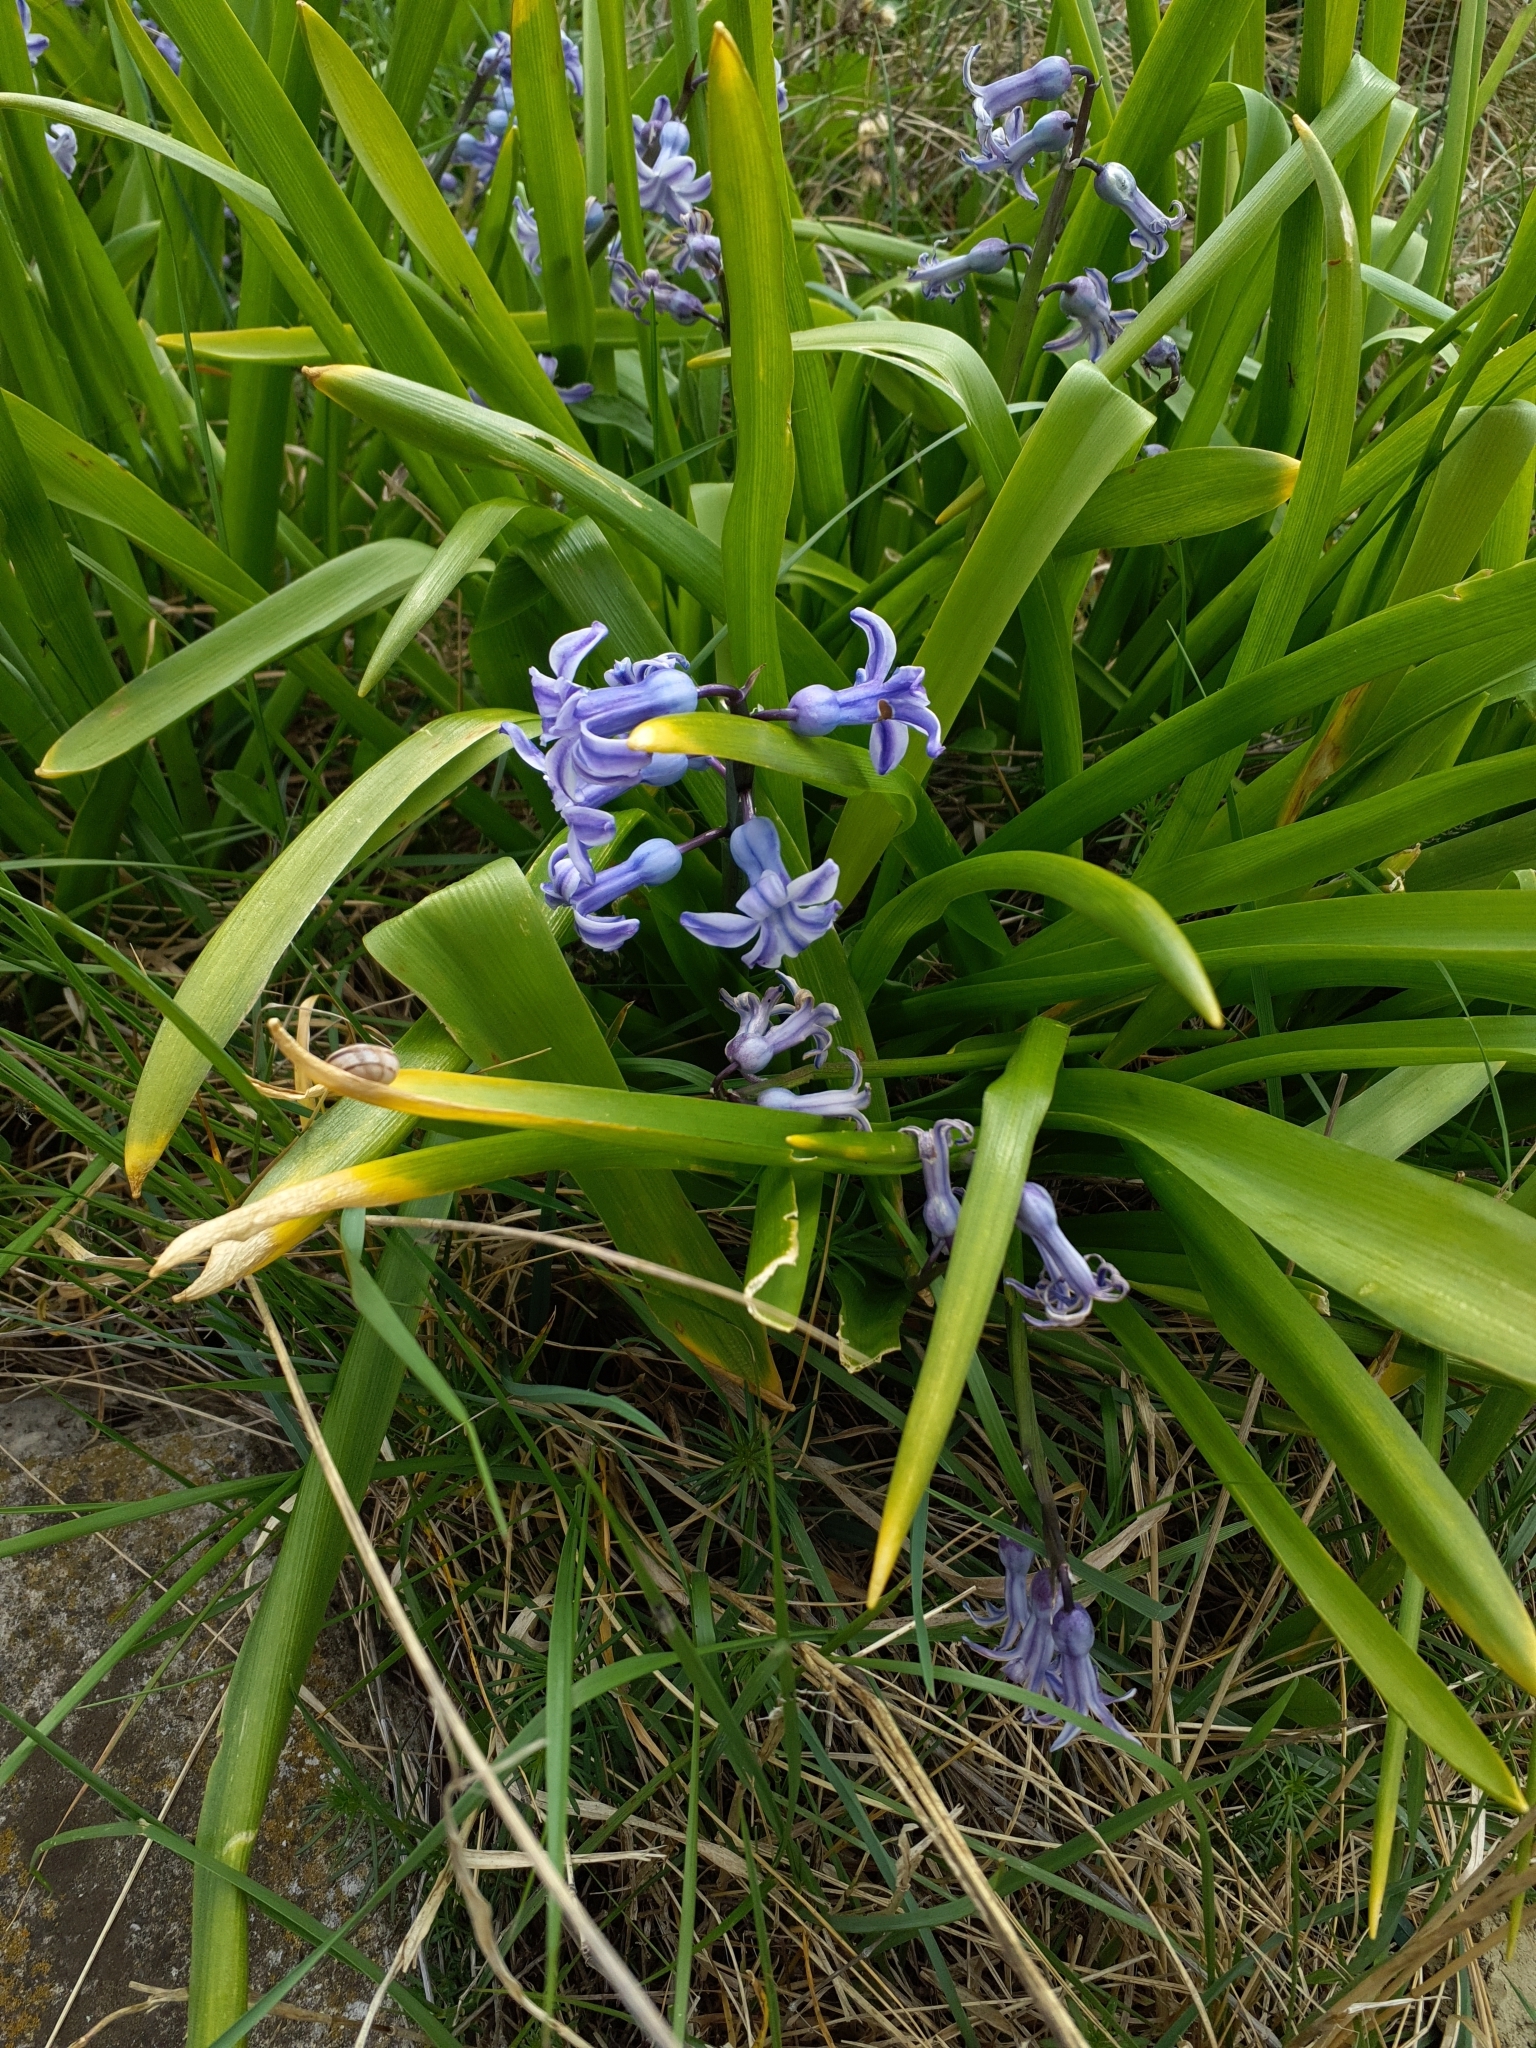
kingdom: Plantae
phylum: Tracheophyta
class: Liliopsida
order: Asparagales
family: Asparagaceae
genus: Hyacinthus
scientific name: Hyacinthus orientalis
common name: Hyacinth
